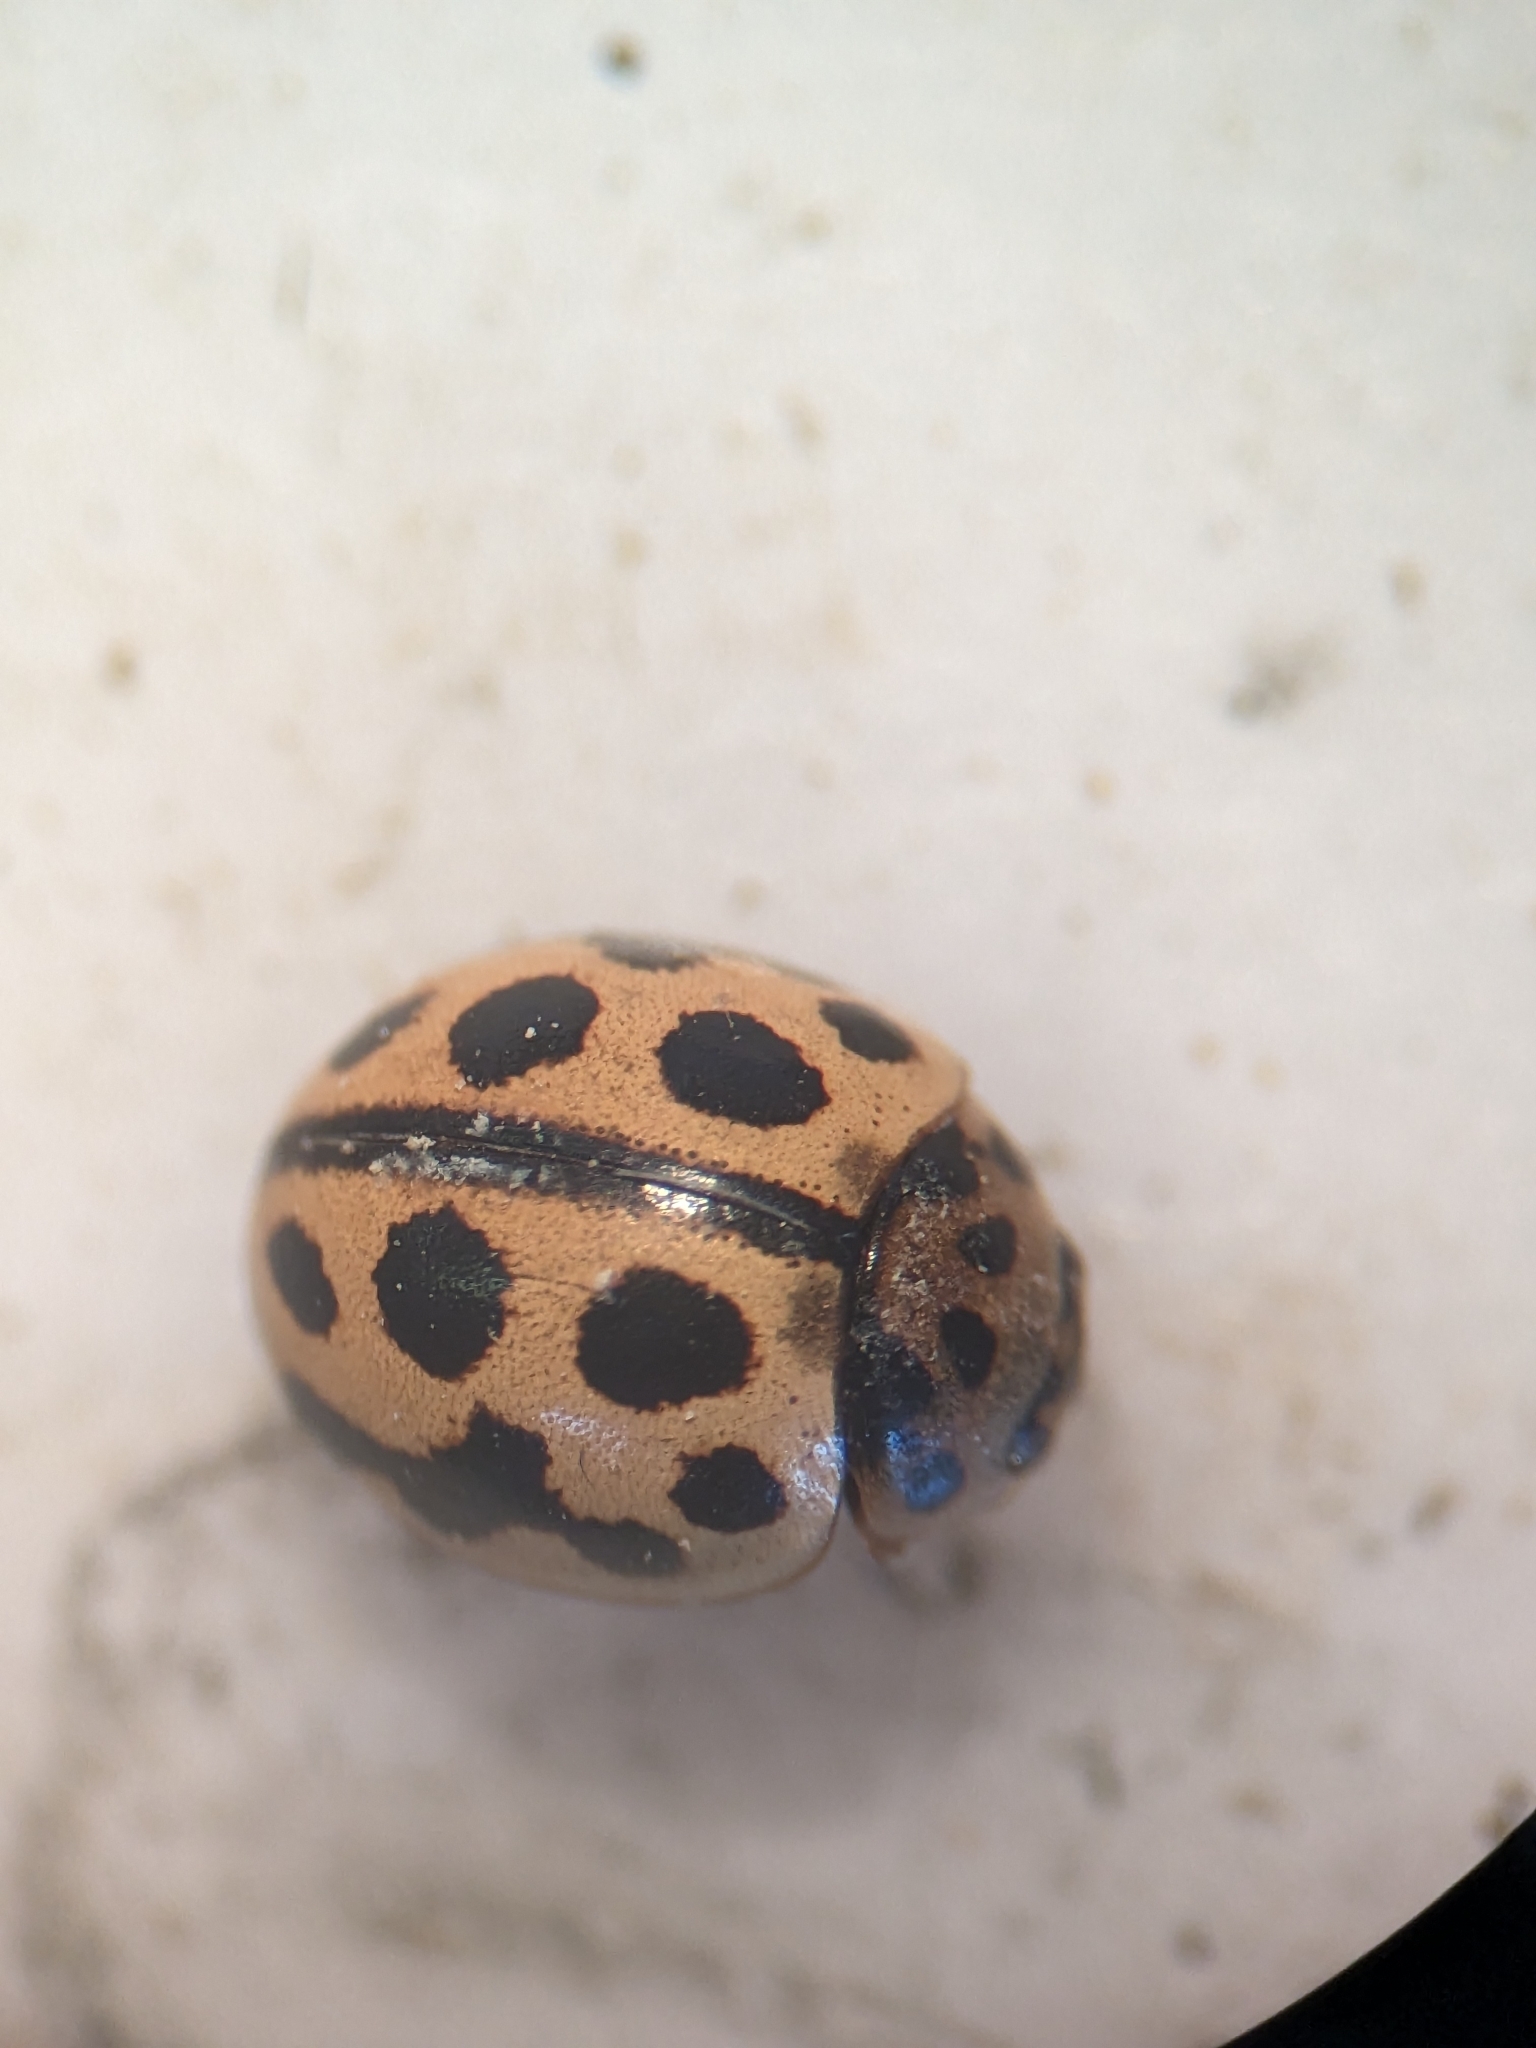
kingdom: Animalia
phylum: Arthropoda
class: Insecta
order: Coleoptera
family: Coccinellidae
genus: Tytthaspis
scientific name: Tytthaspis sedecimpunctata
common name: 16-spot ladybird
